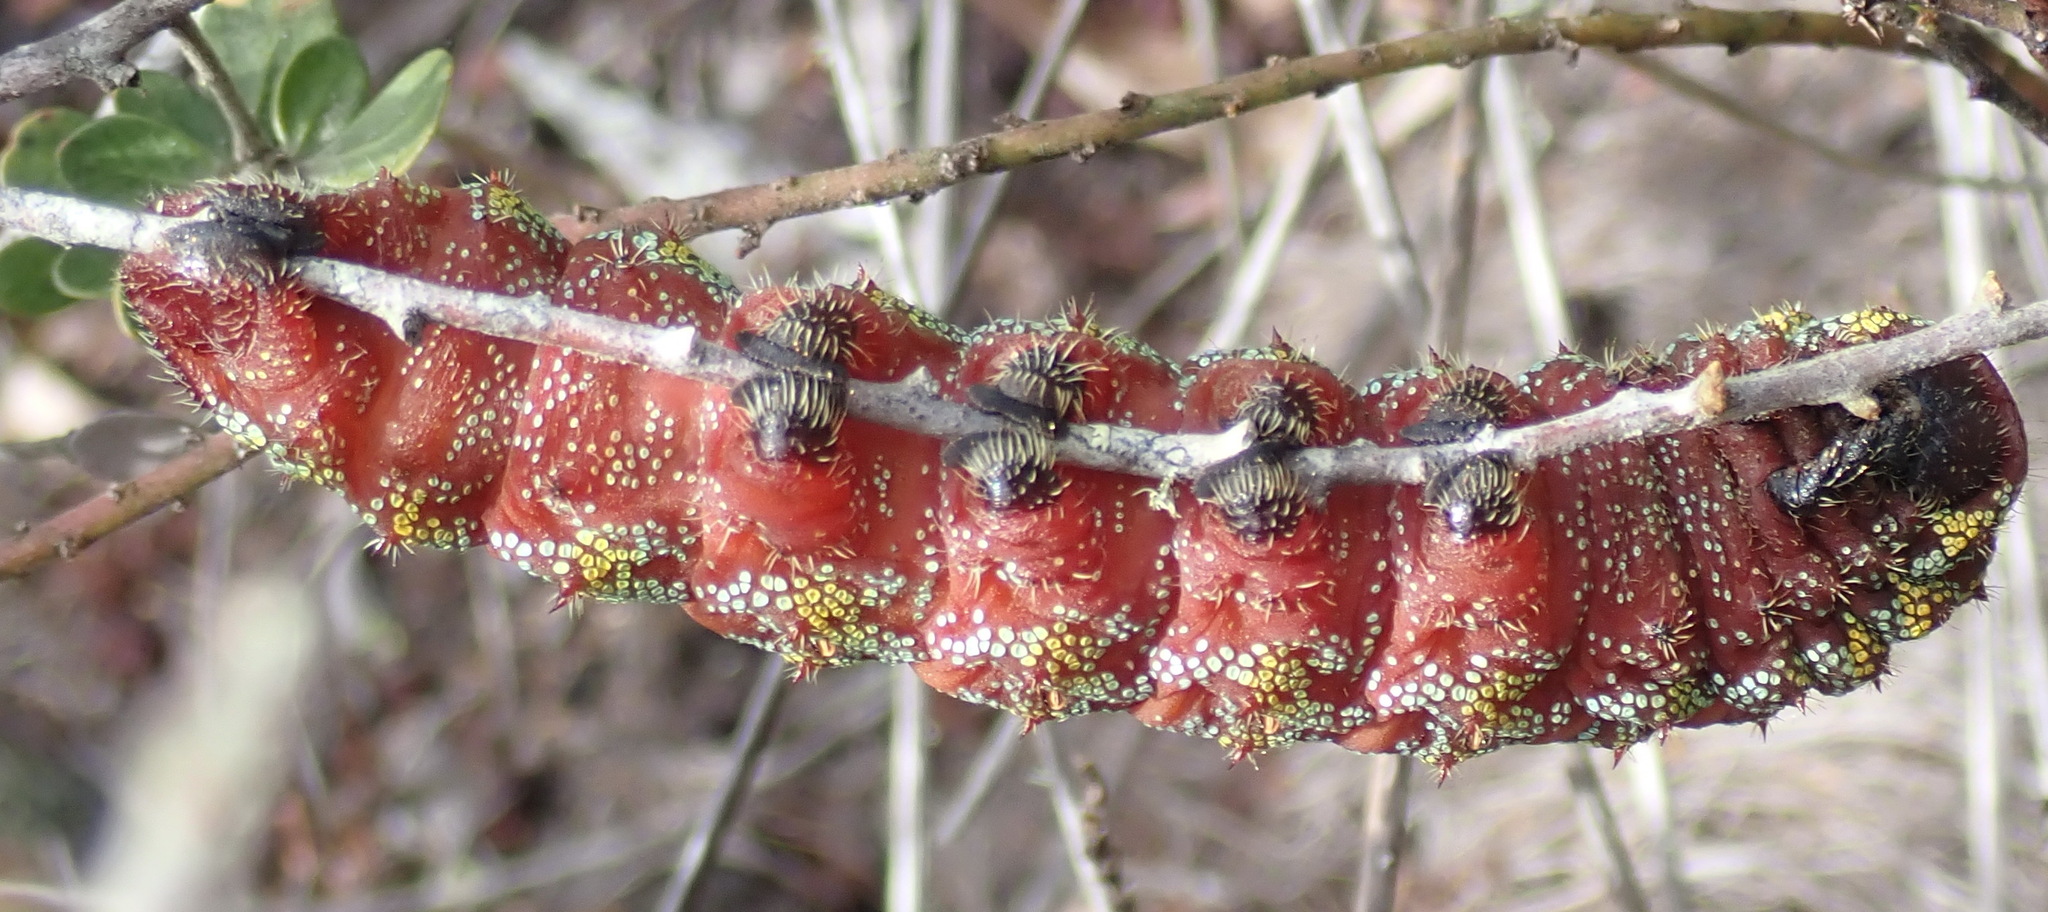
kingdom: Animalia
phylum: Arthropoda
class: Insecta
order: Lepidoptera
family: Saturniidae
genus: Nudaurelia
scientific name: Nudaurelia cytherea
